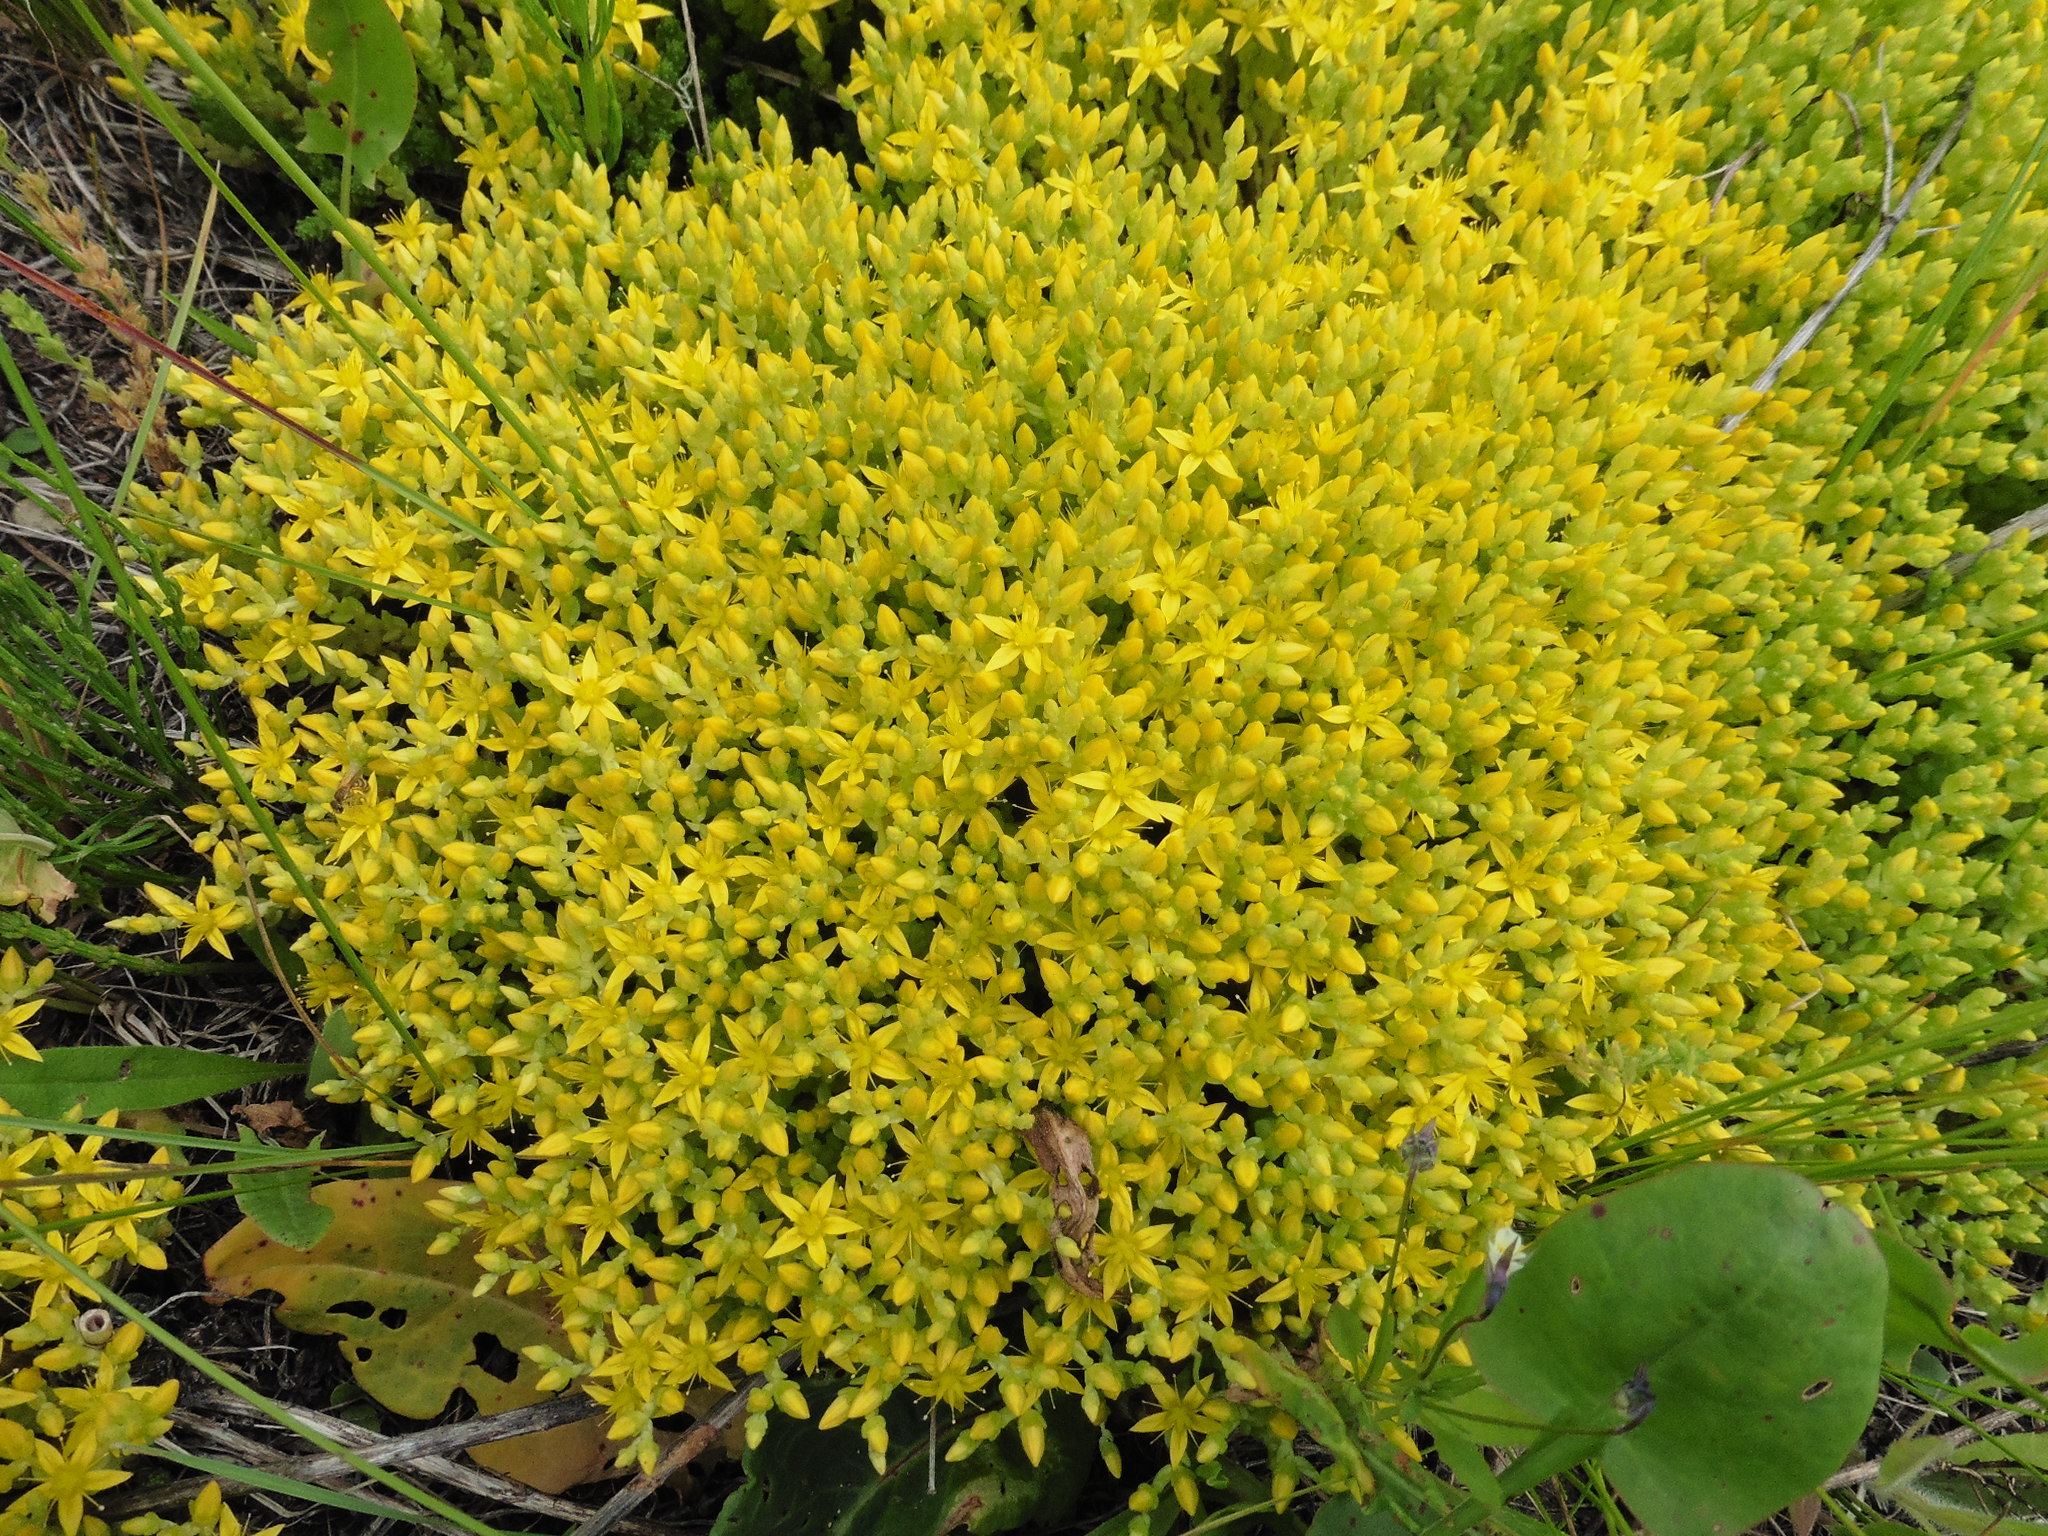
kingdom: Plantae
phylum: Tracheophyta
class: Magnoliopsida
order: Saxifragales
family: Crassulaceae
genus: Sedum
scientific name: Sedum acre
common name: Biting stonecrop
